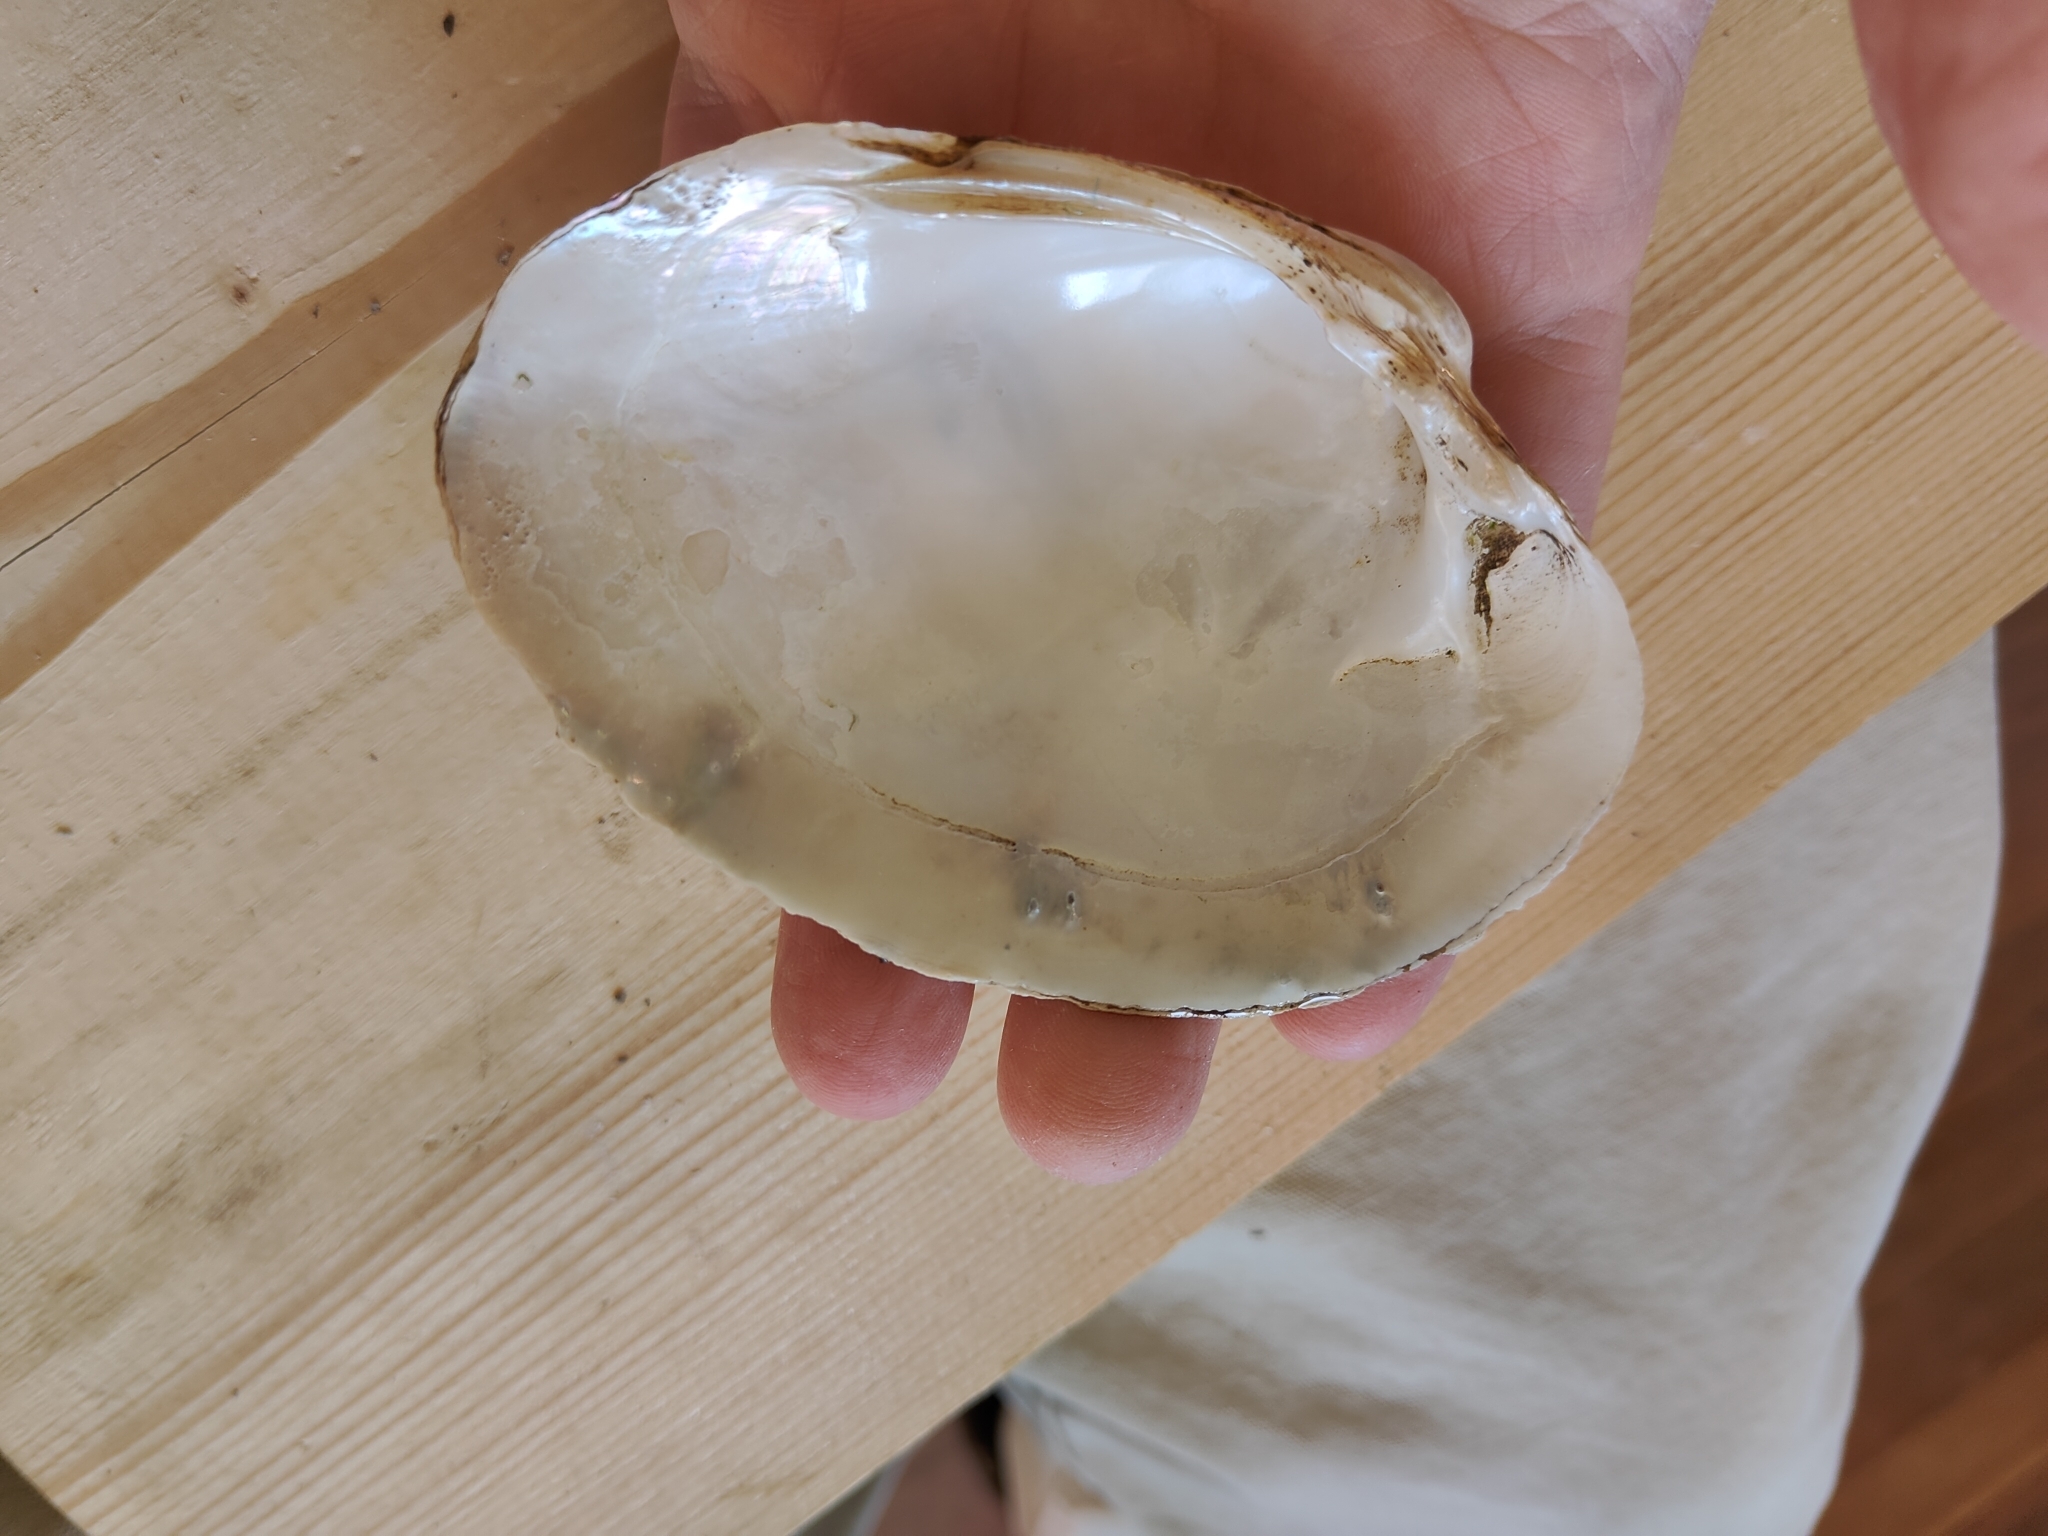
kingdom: Animalia
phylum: Mollusca
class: Bivalvia
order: Unionida
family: Unionidae
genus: Lampsilis
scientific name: Lampsilis cardium
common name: Plain pocketbook
